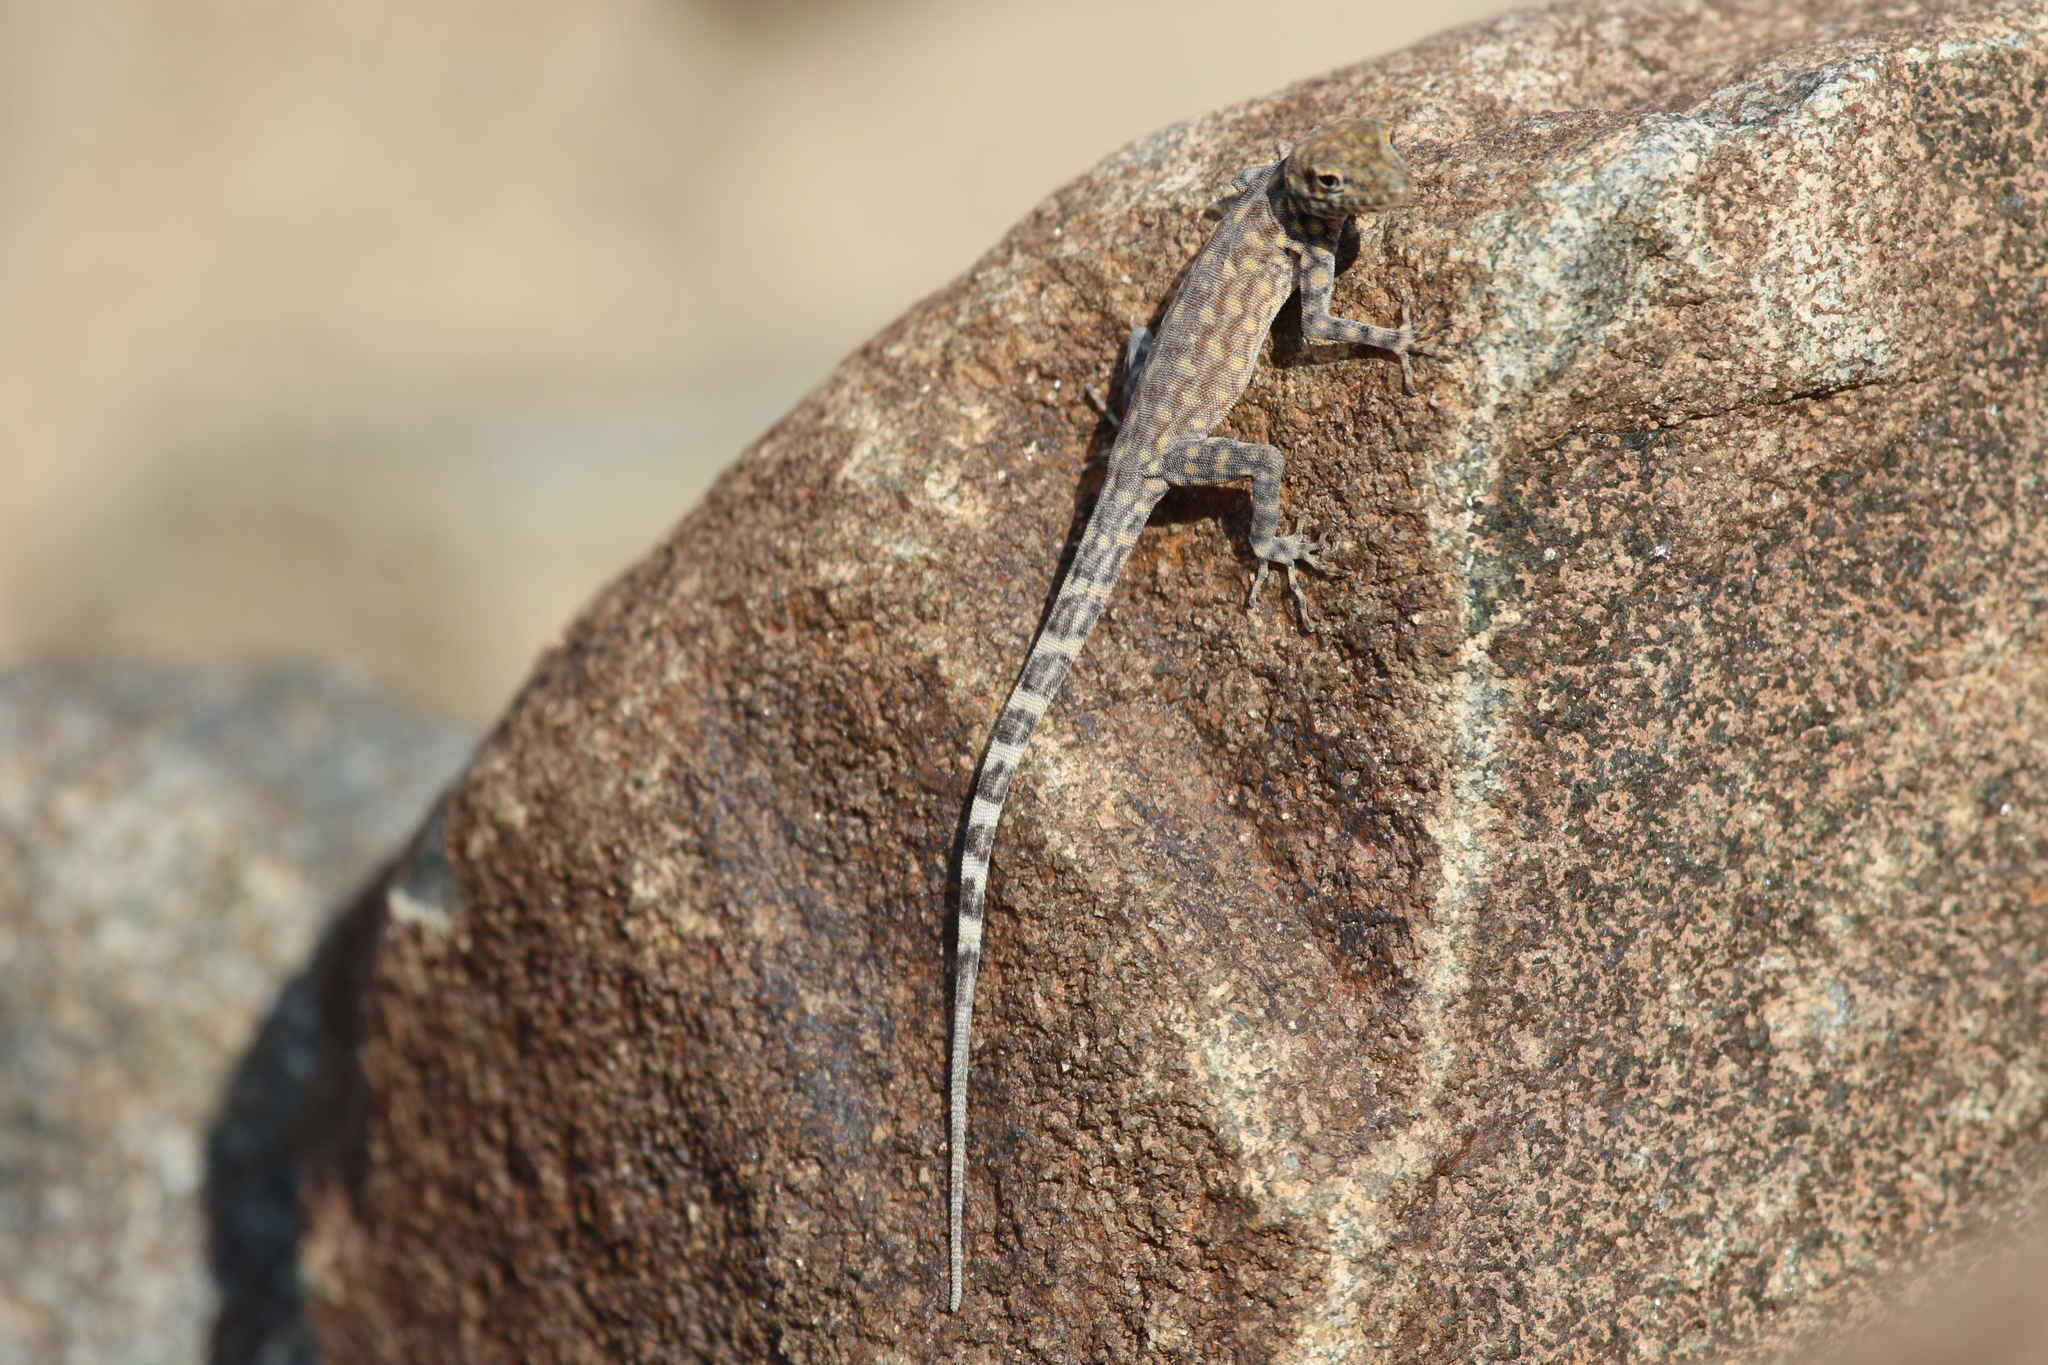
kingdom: Animalia
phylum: Chordata
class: Squamata
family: Sphaerodactylidae
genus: Pristurus
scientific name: Pristurus celerrimus
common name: Bar-tailed semaphore gecko
